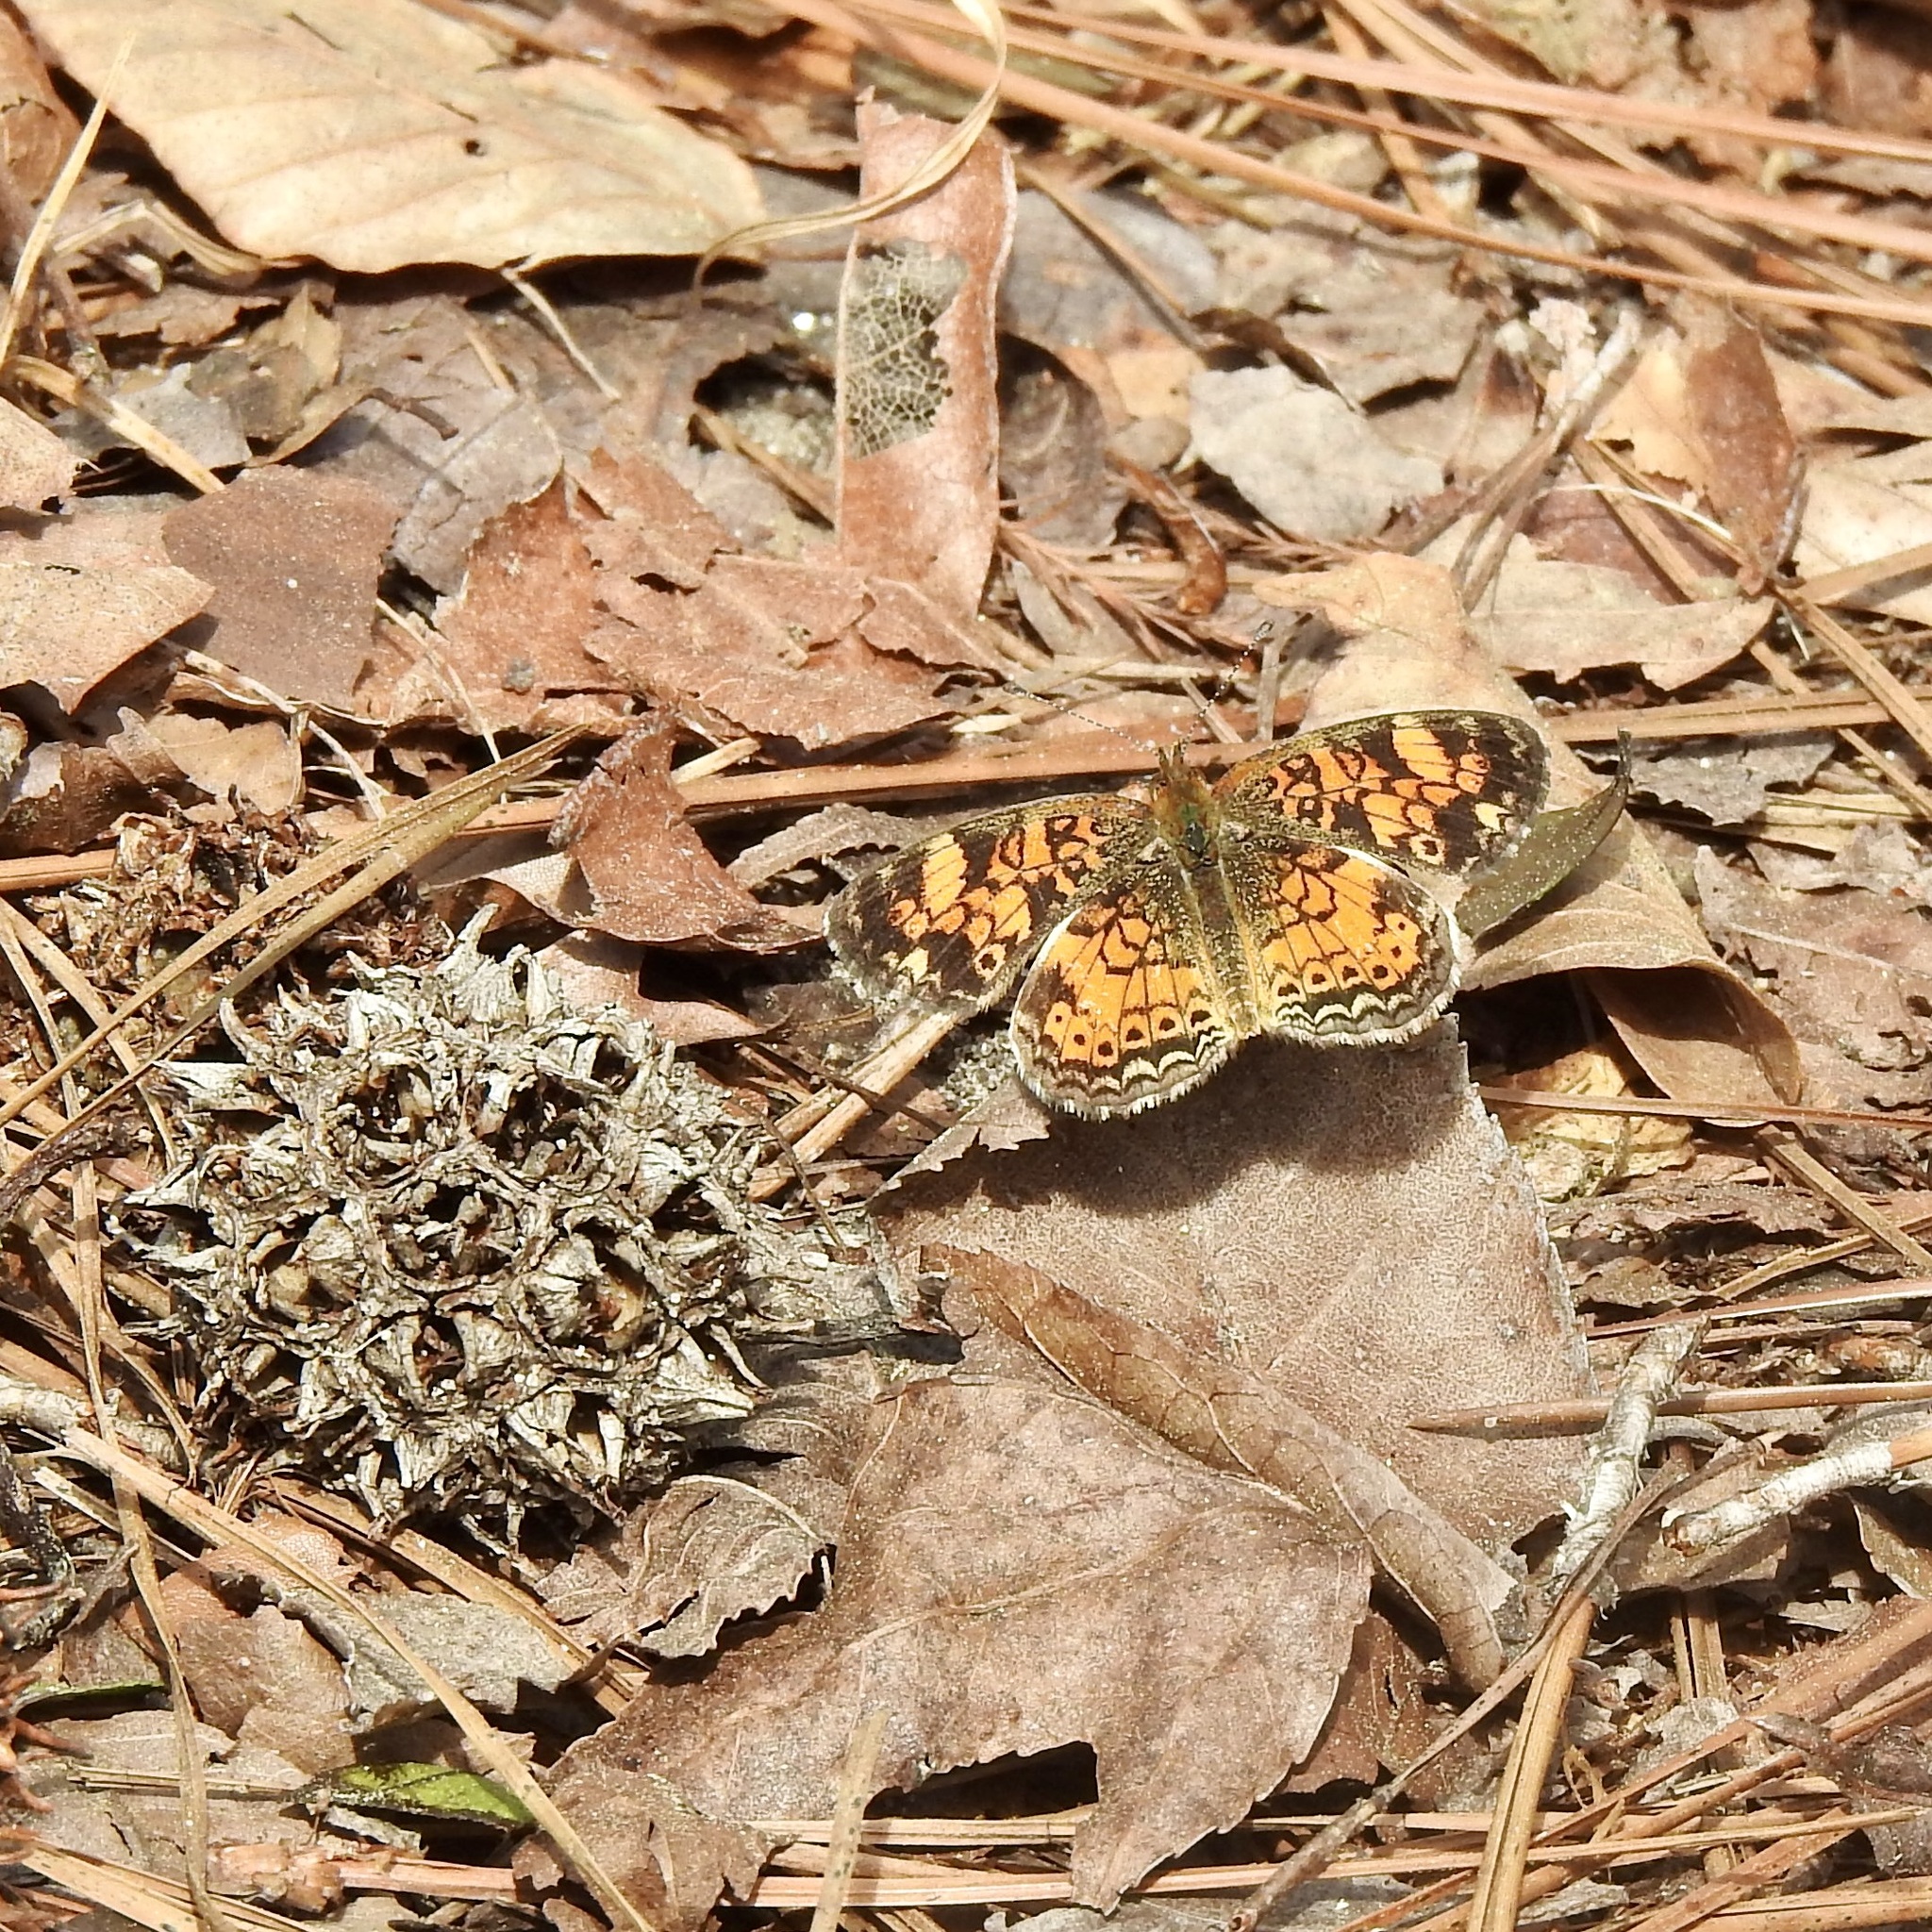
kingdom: Animalia
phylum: Arthropoda
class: Insecta
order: Lepidoptera
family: Nymphalidae
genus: Phyciodes
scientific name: Phyciodes tharos
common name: Pearl crescent
